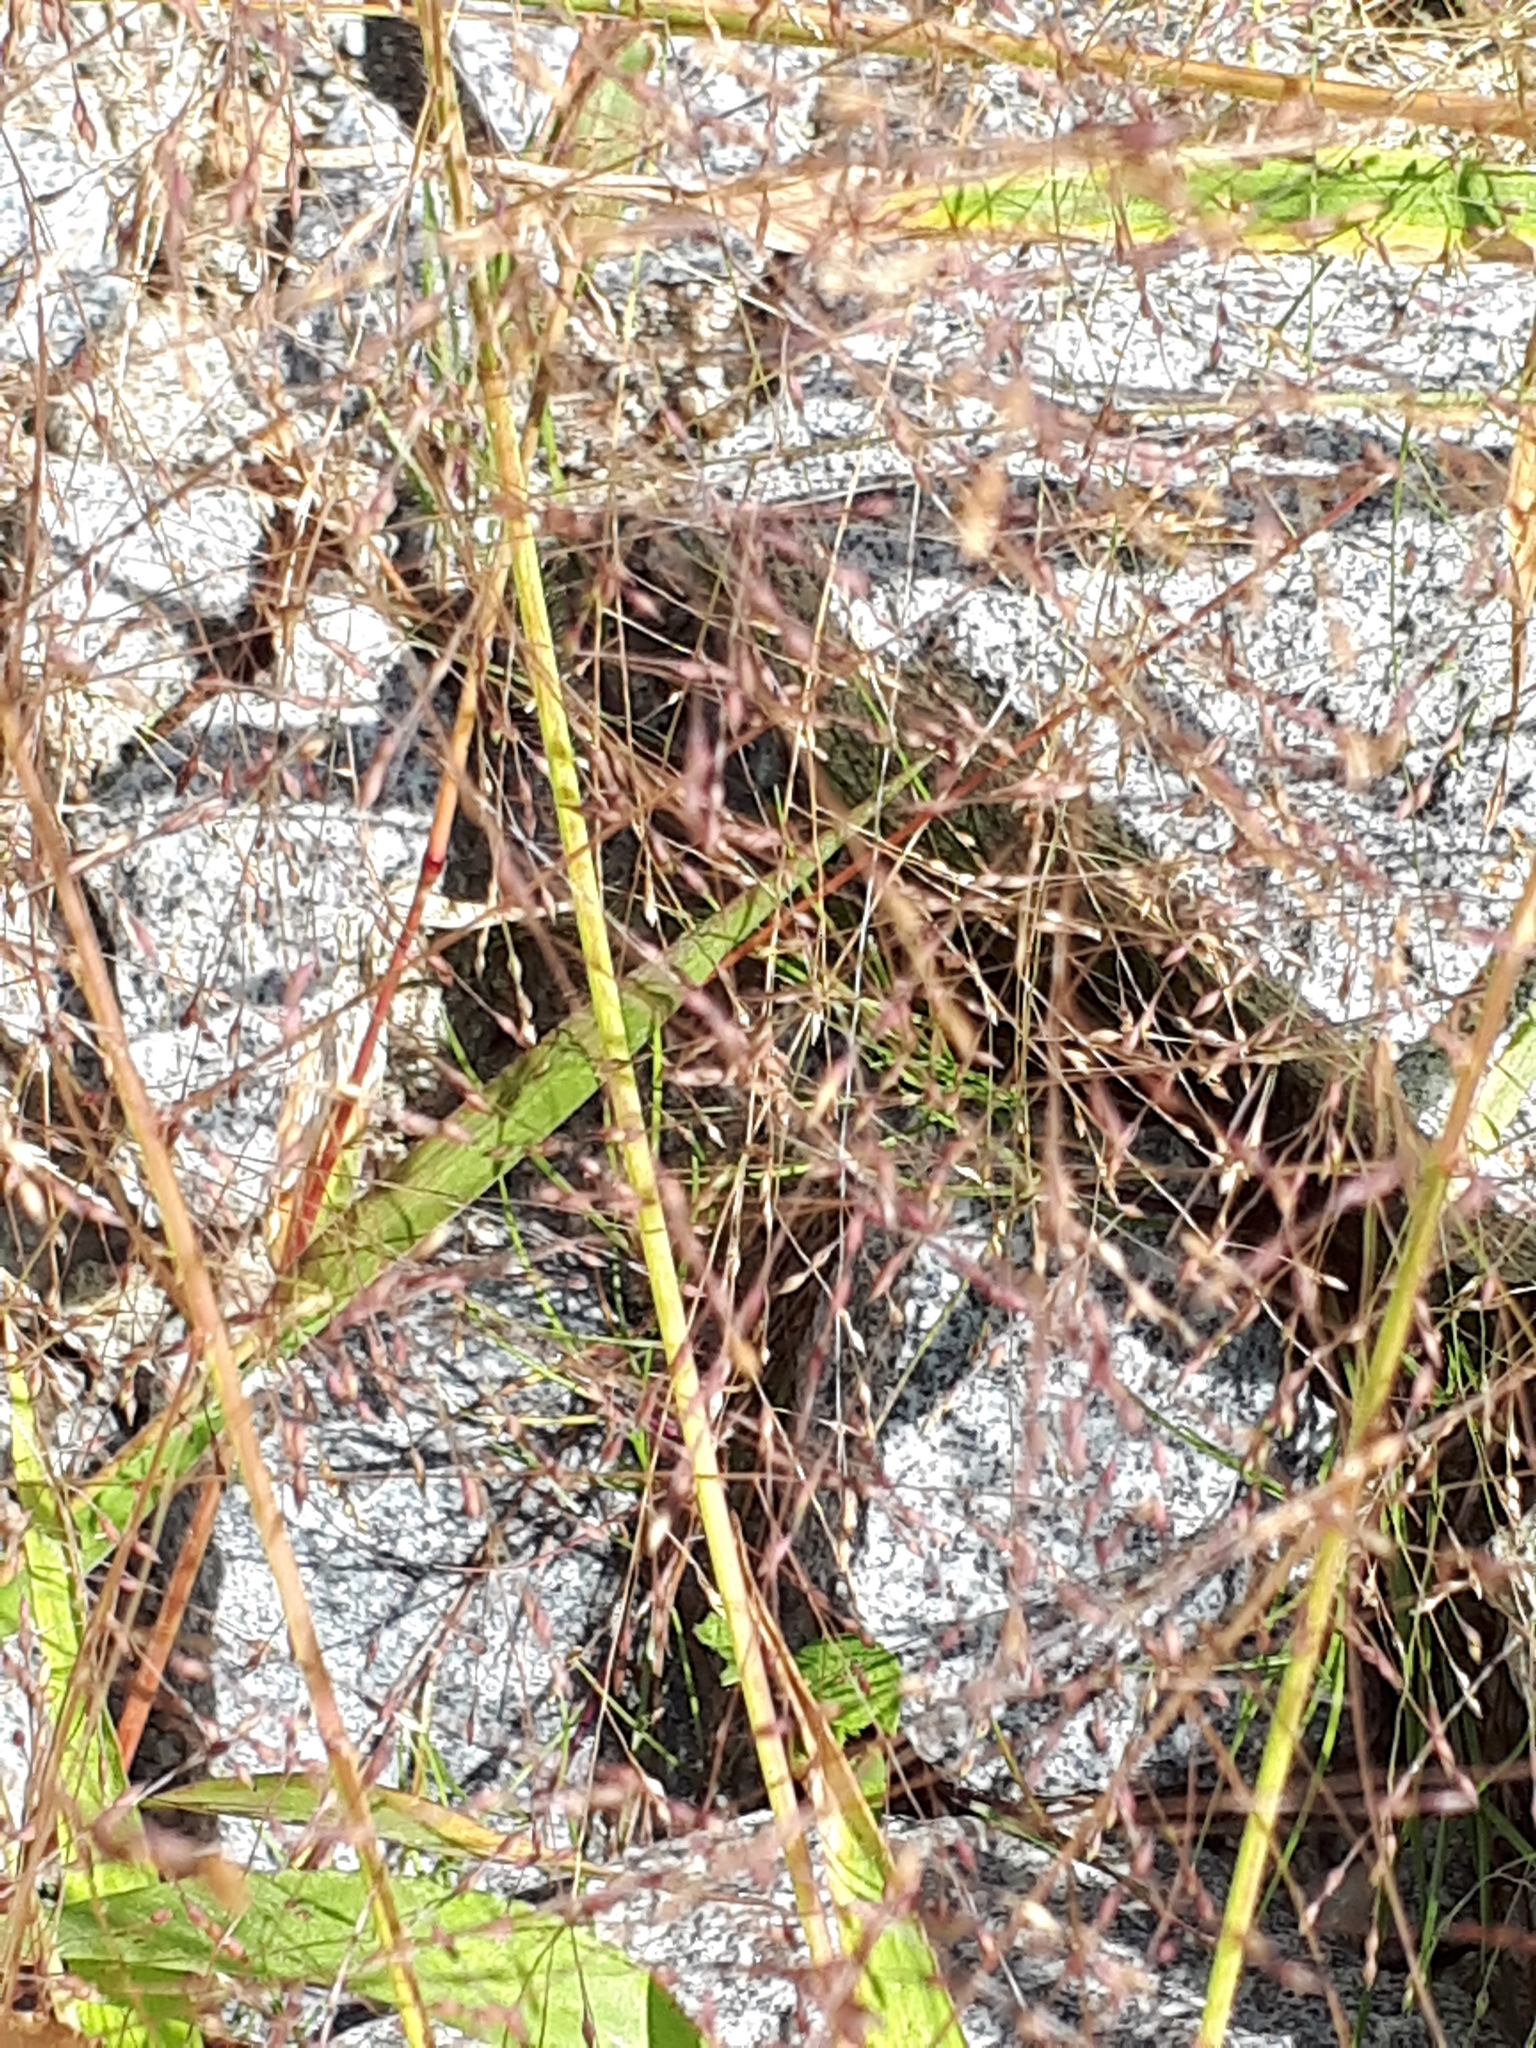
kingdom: Plantae
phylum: Tracheophyta
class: Liliopsida
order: Poales
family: Poaceae
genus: Panicum
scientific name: Panicum capillare
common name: Witch-grass
